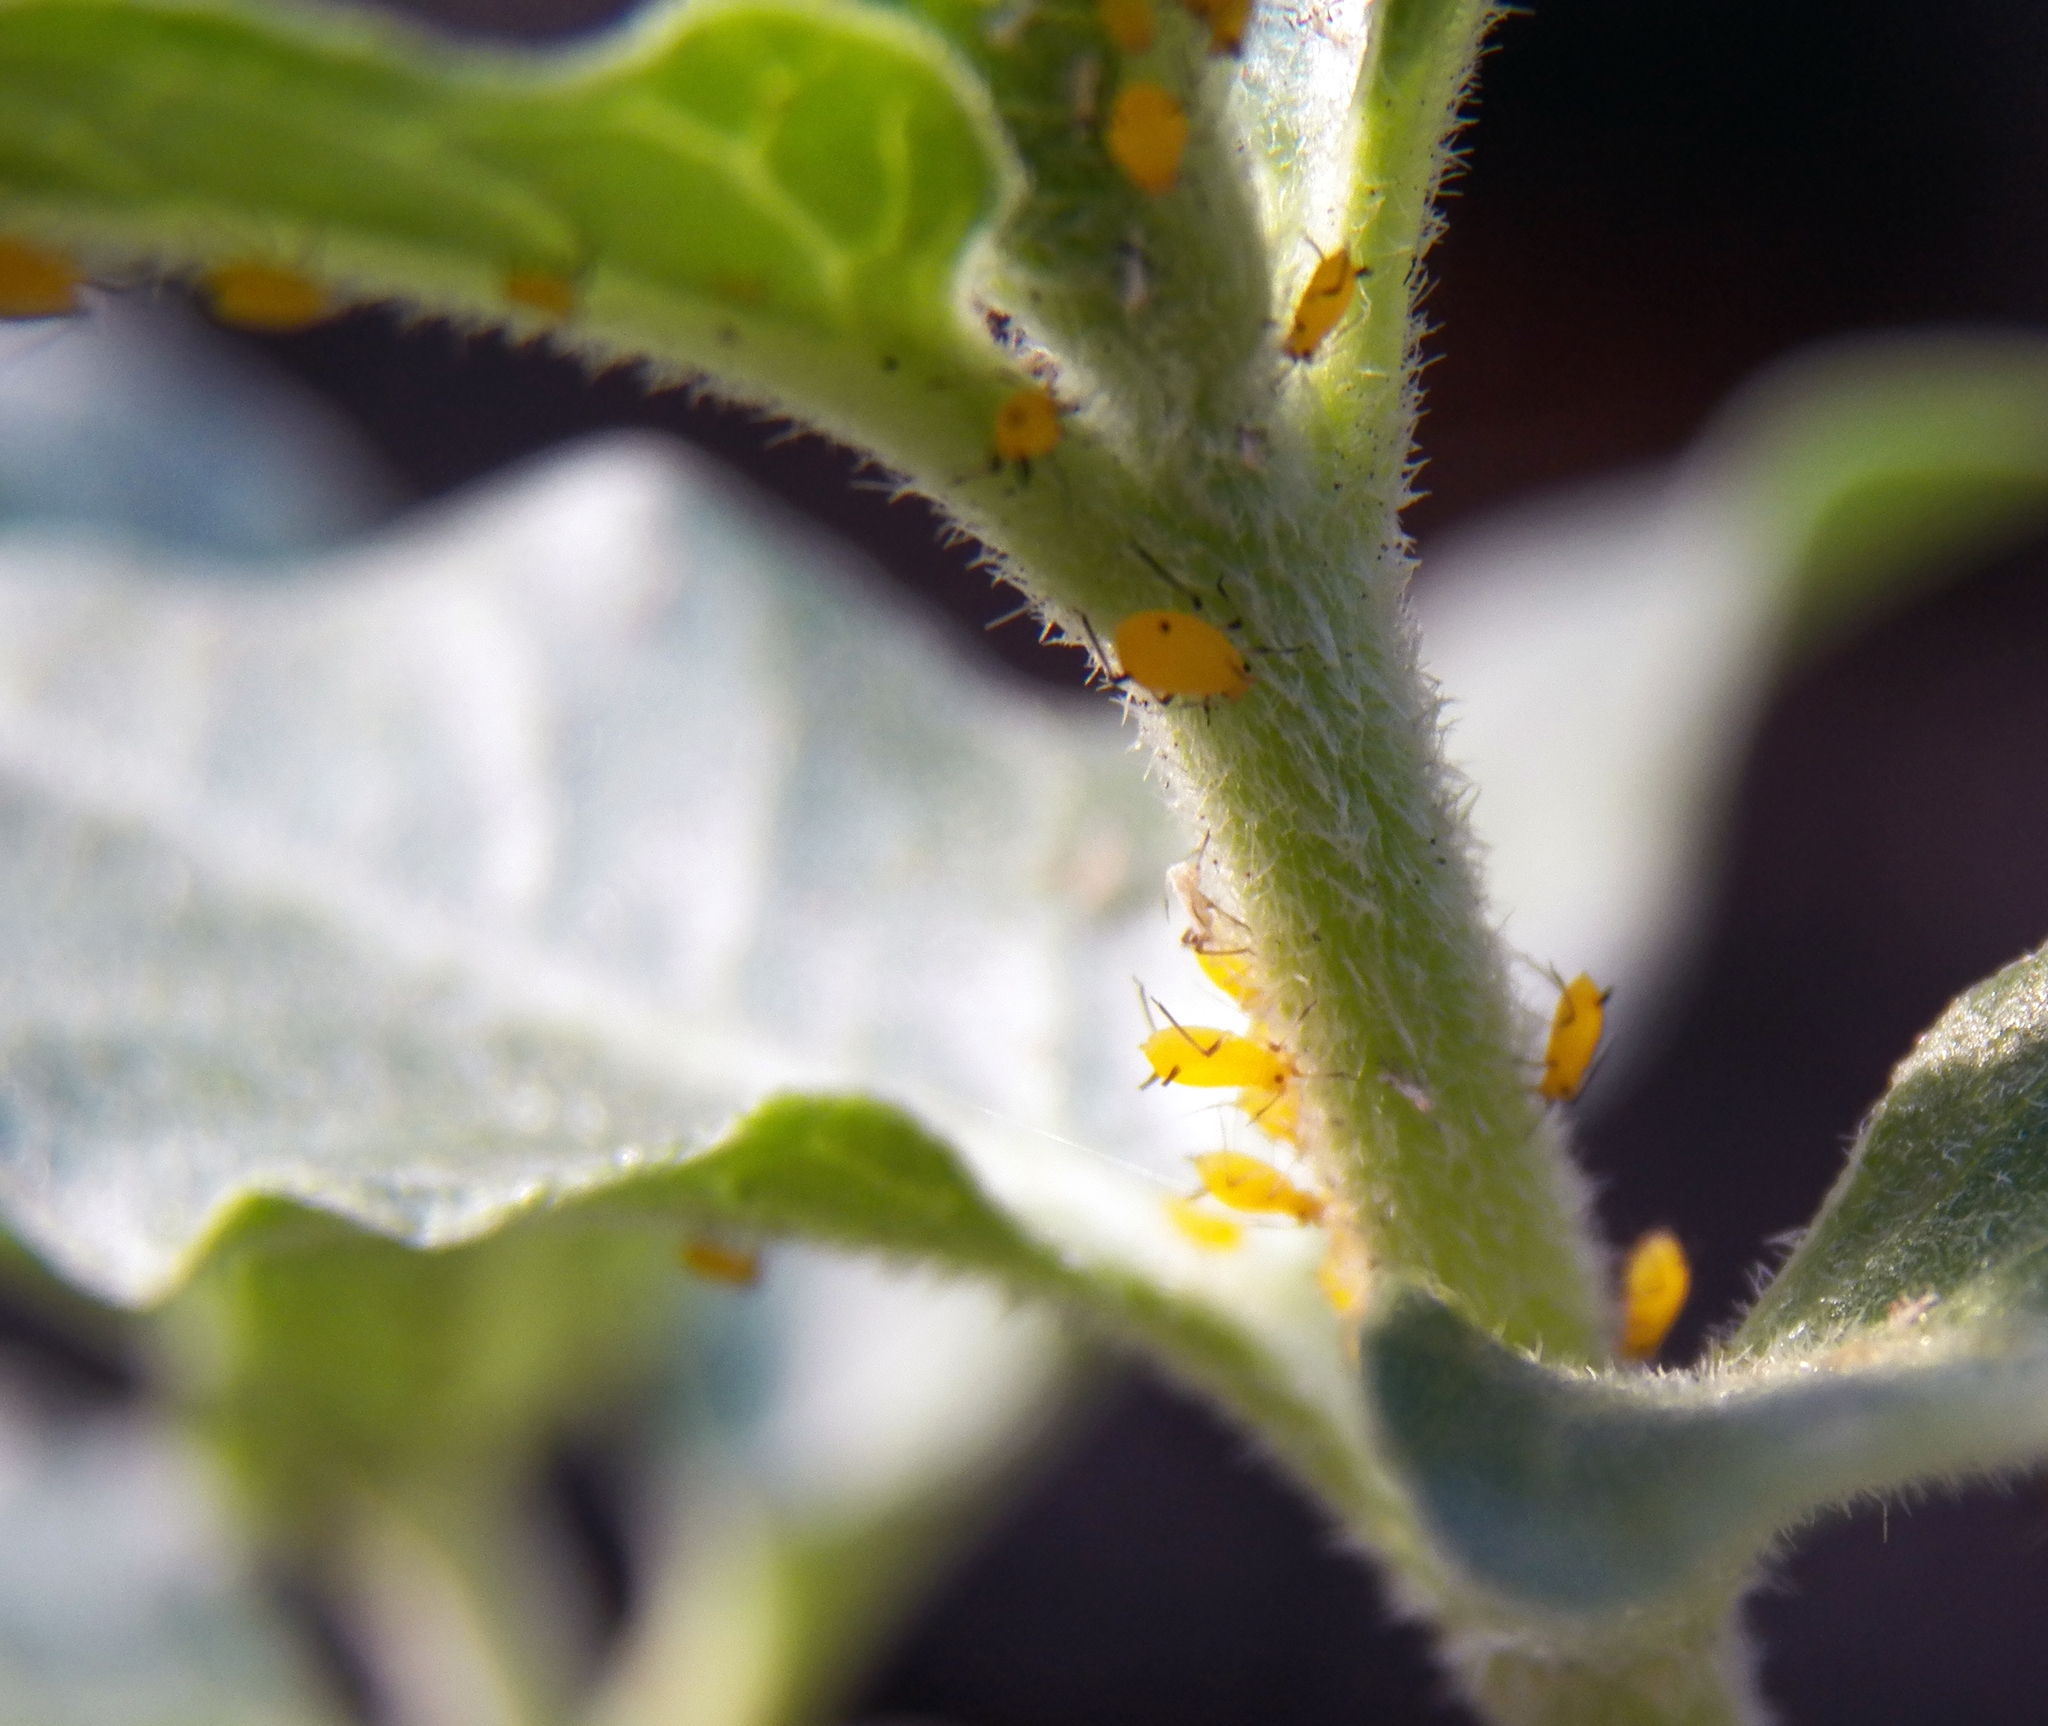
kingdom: Animalia
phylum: Arthropoda
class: Insecta
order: Hemiptera
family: Aphididae
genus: Aphis
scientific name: Aphis nerii
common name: Oleander aphid
